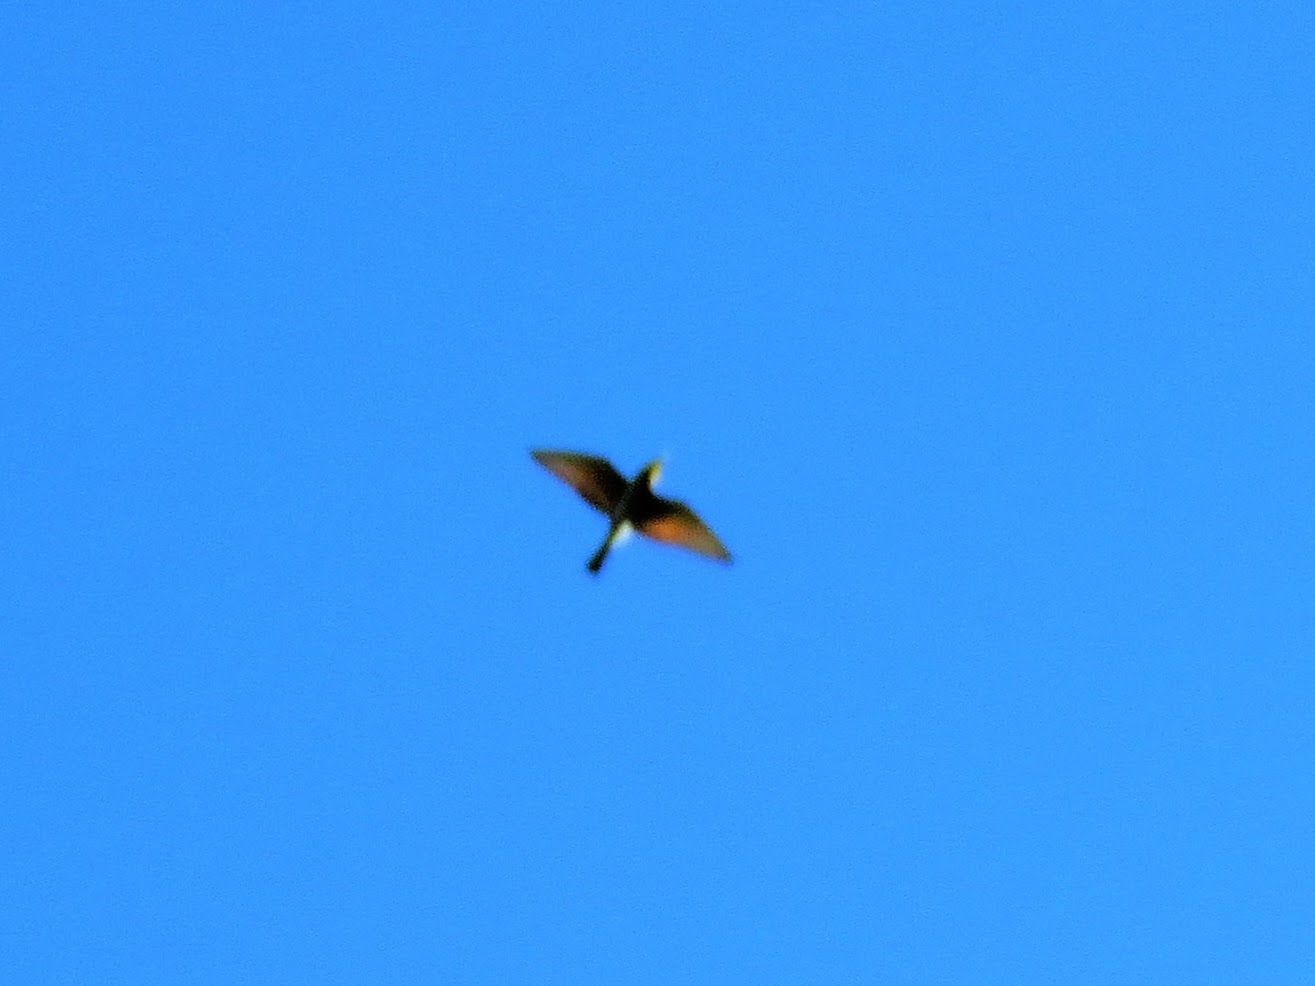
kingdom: Animalia
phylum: Chordata
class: Aves
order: Coraciiformes
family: Meropidae
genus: Merops
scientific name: Merops apiaster
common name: European bee-eater
